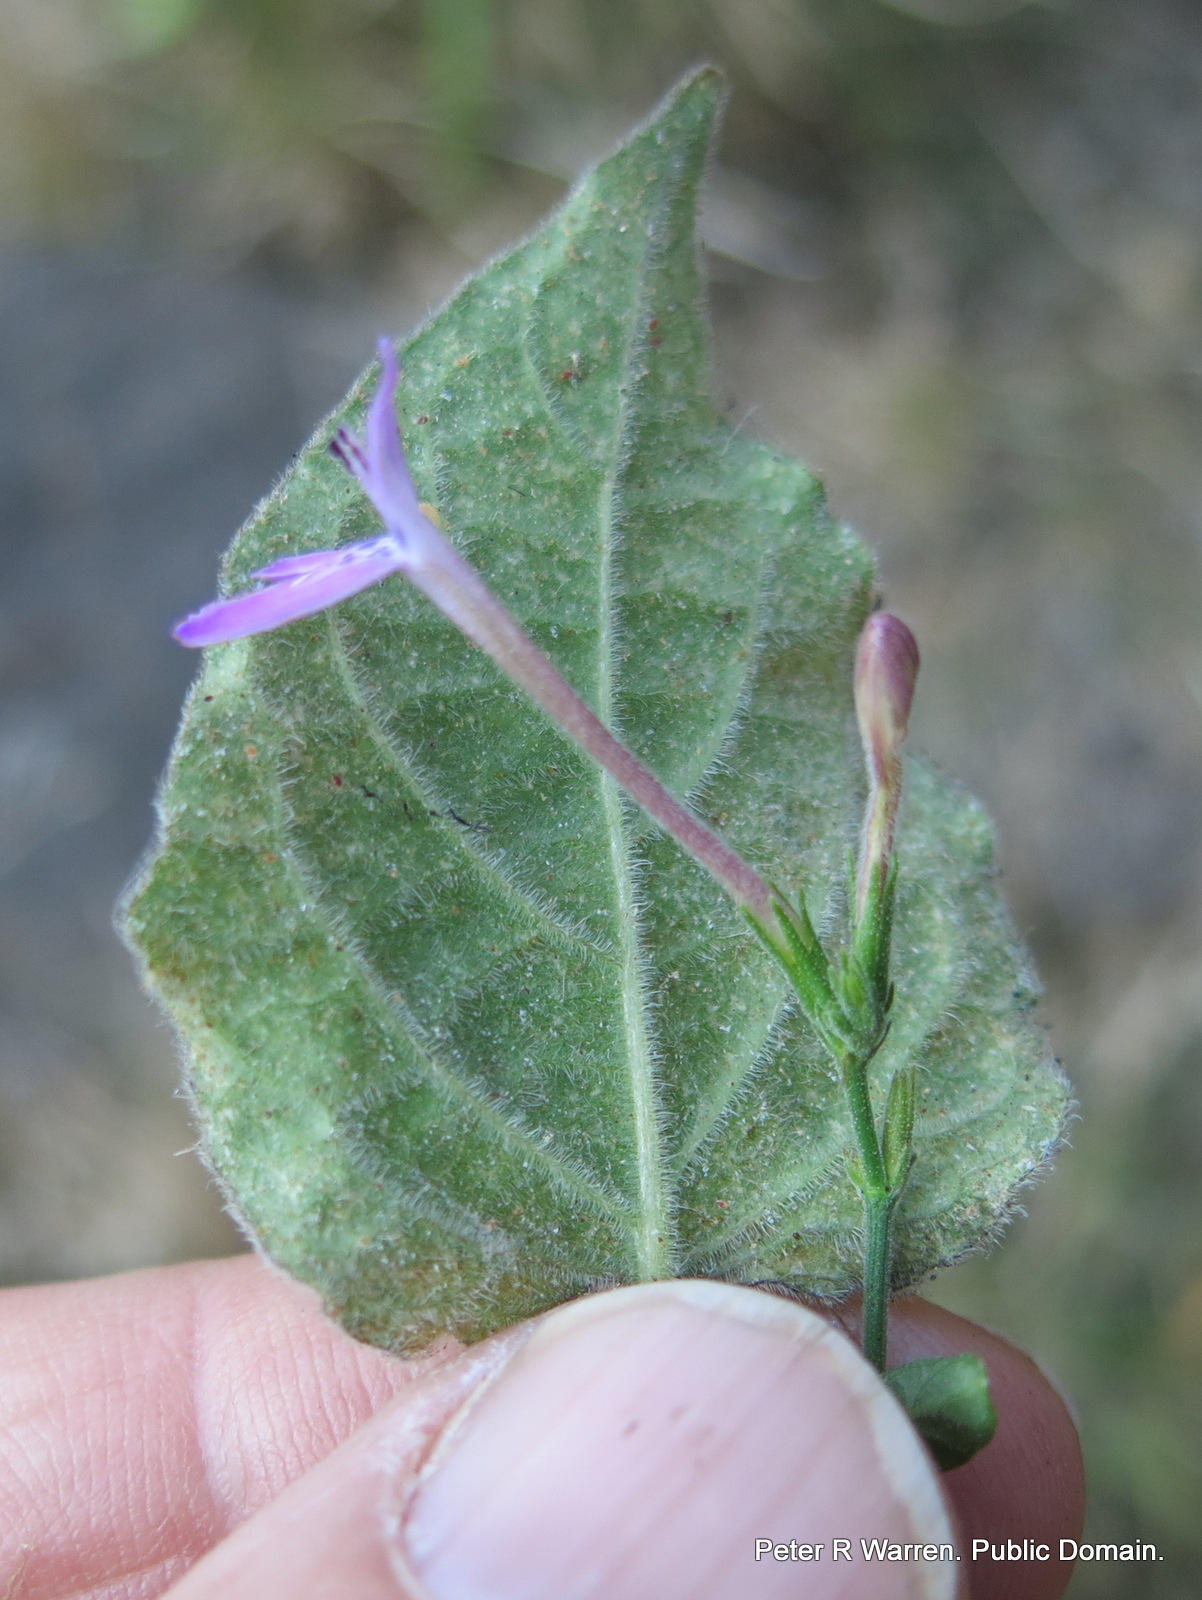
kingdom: Plantae
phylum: Tracheophyta
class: Magnoliopsida
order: Lamiales
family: Acanthaceae
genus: Rhinacanthus
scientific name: Rhinacanthus gracilis
